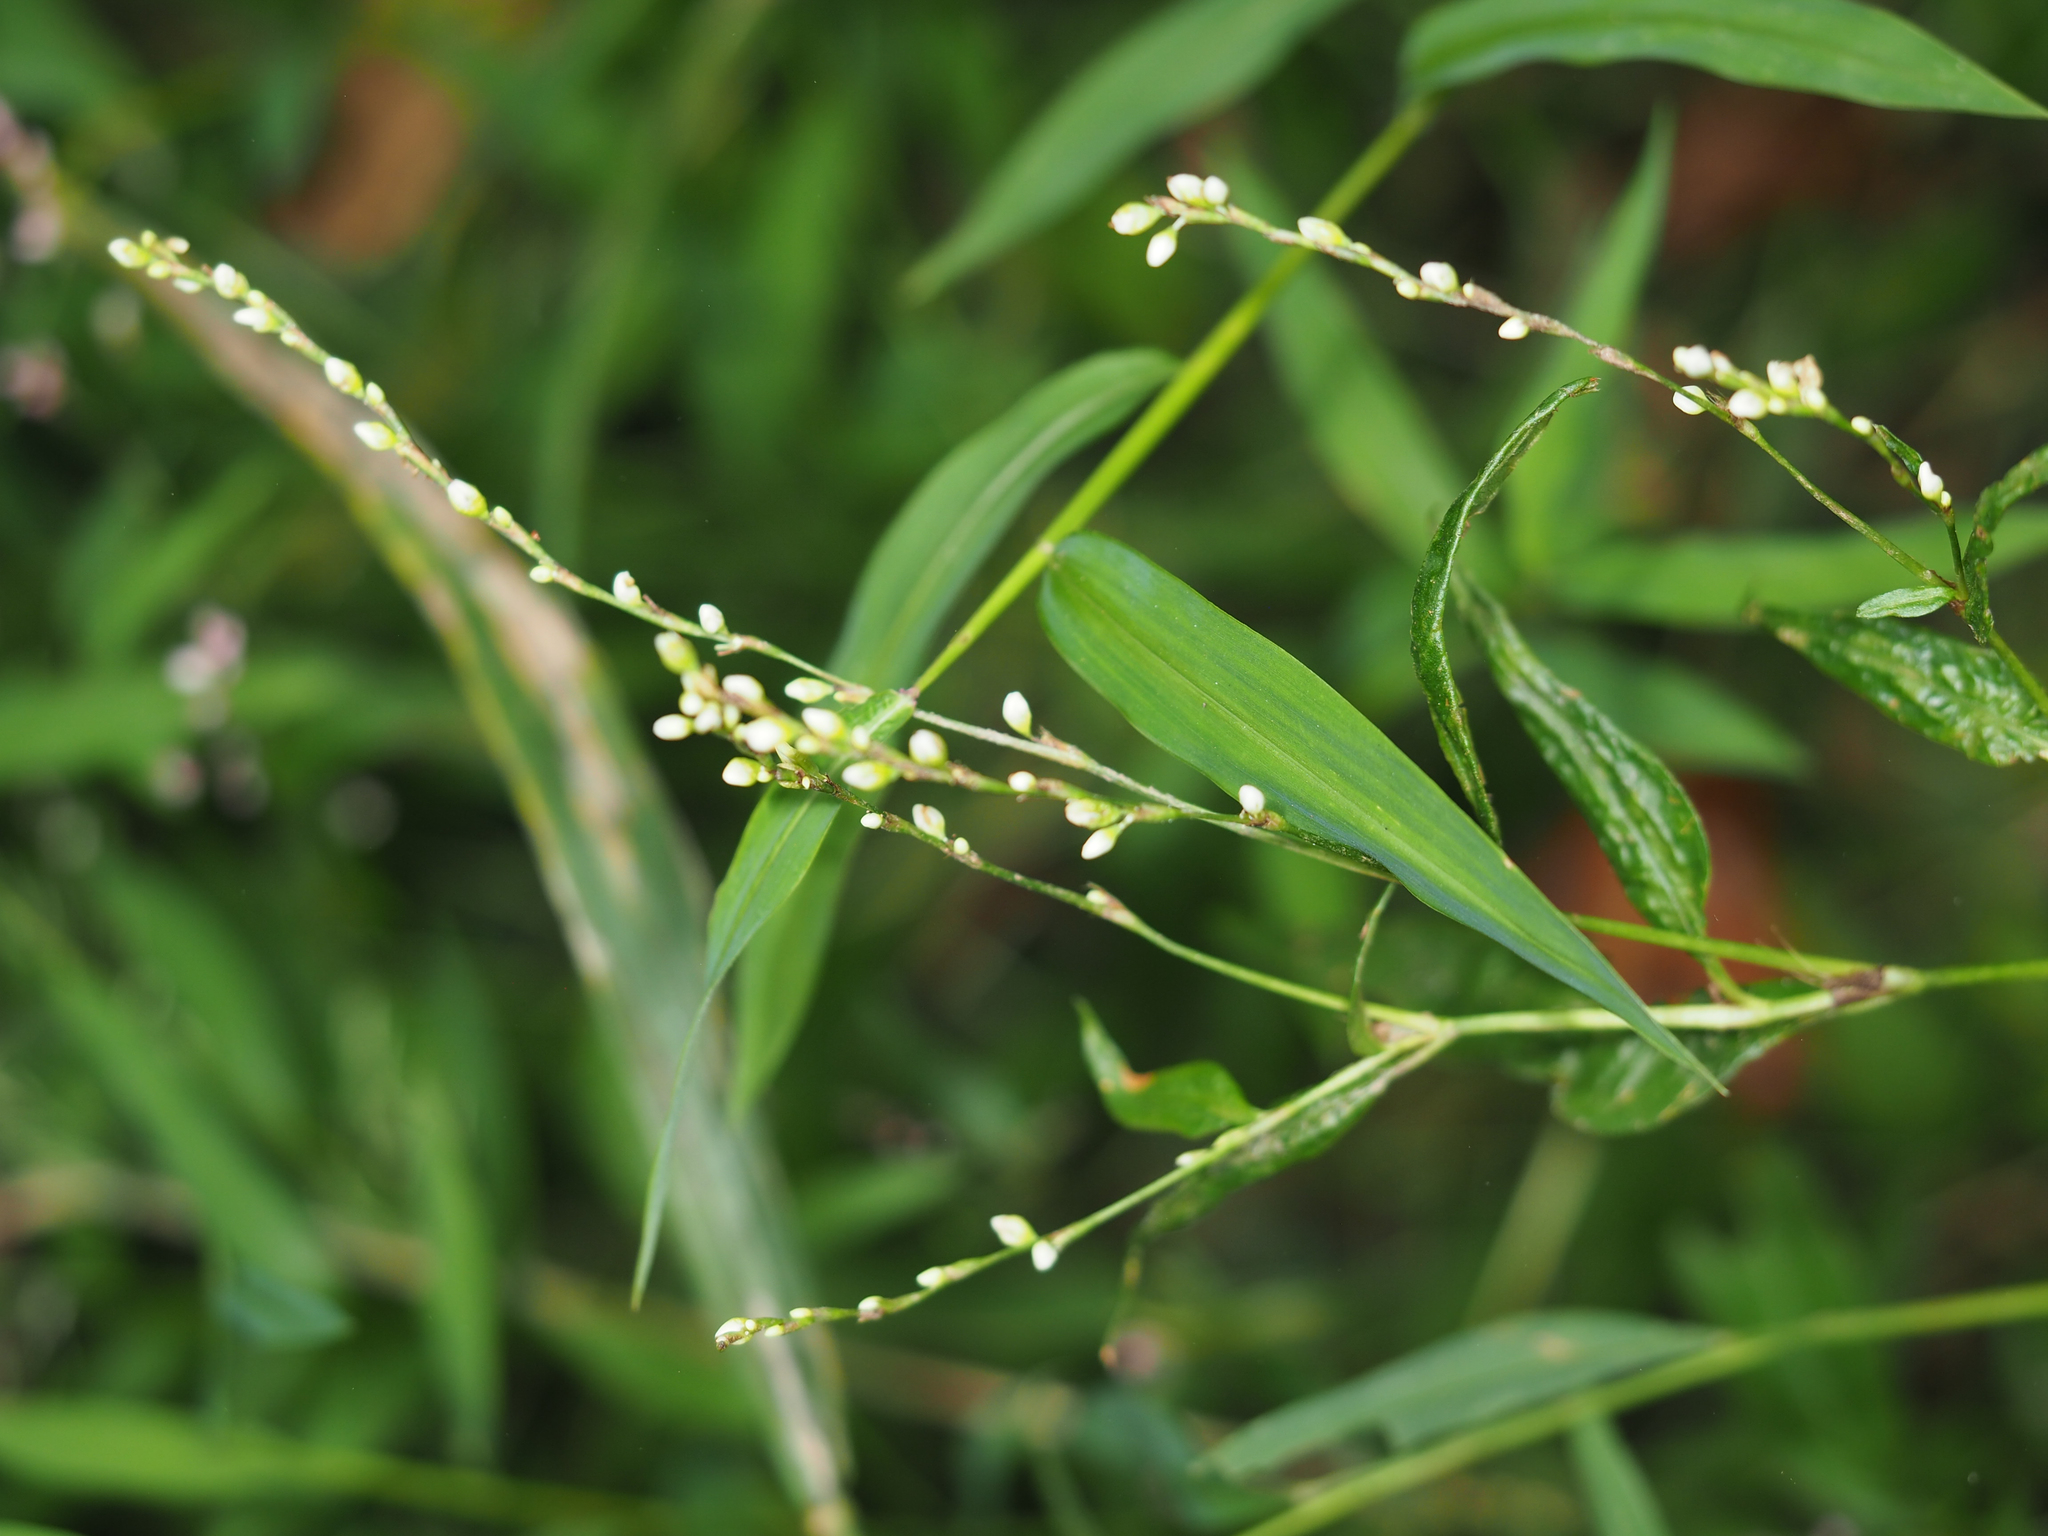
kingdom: Plantae
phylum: Tracheophyta
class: Magnoliopsida
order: Caryophyllales
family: Polygonaceae
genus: Persicaria
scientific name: Persicaria punctata
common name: Dotted smartweed
